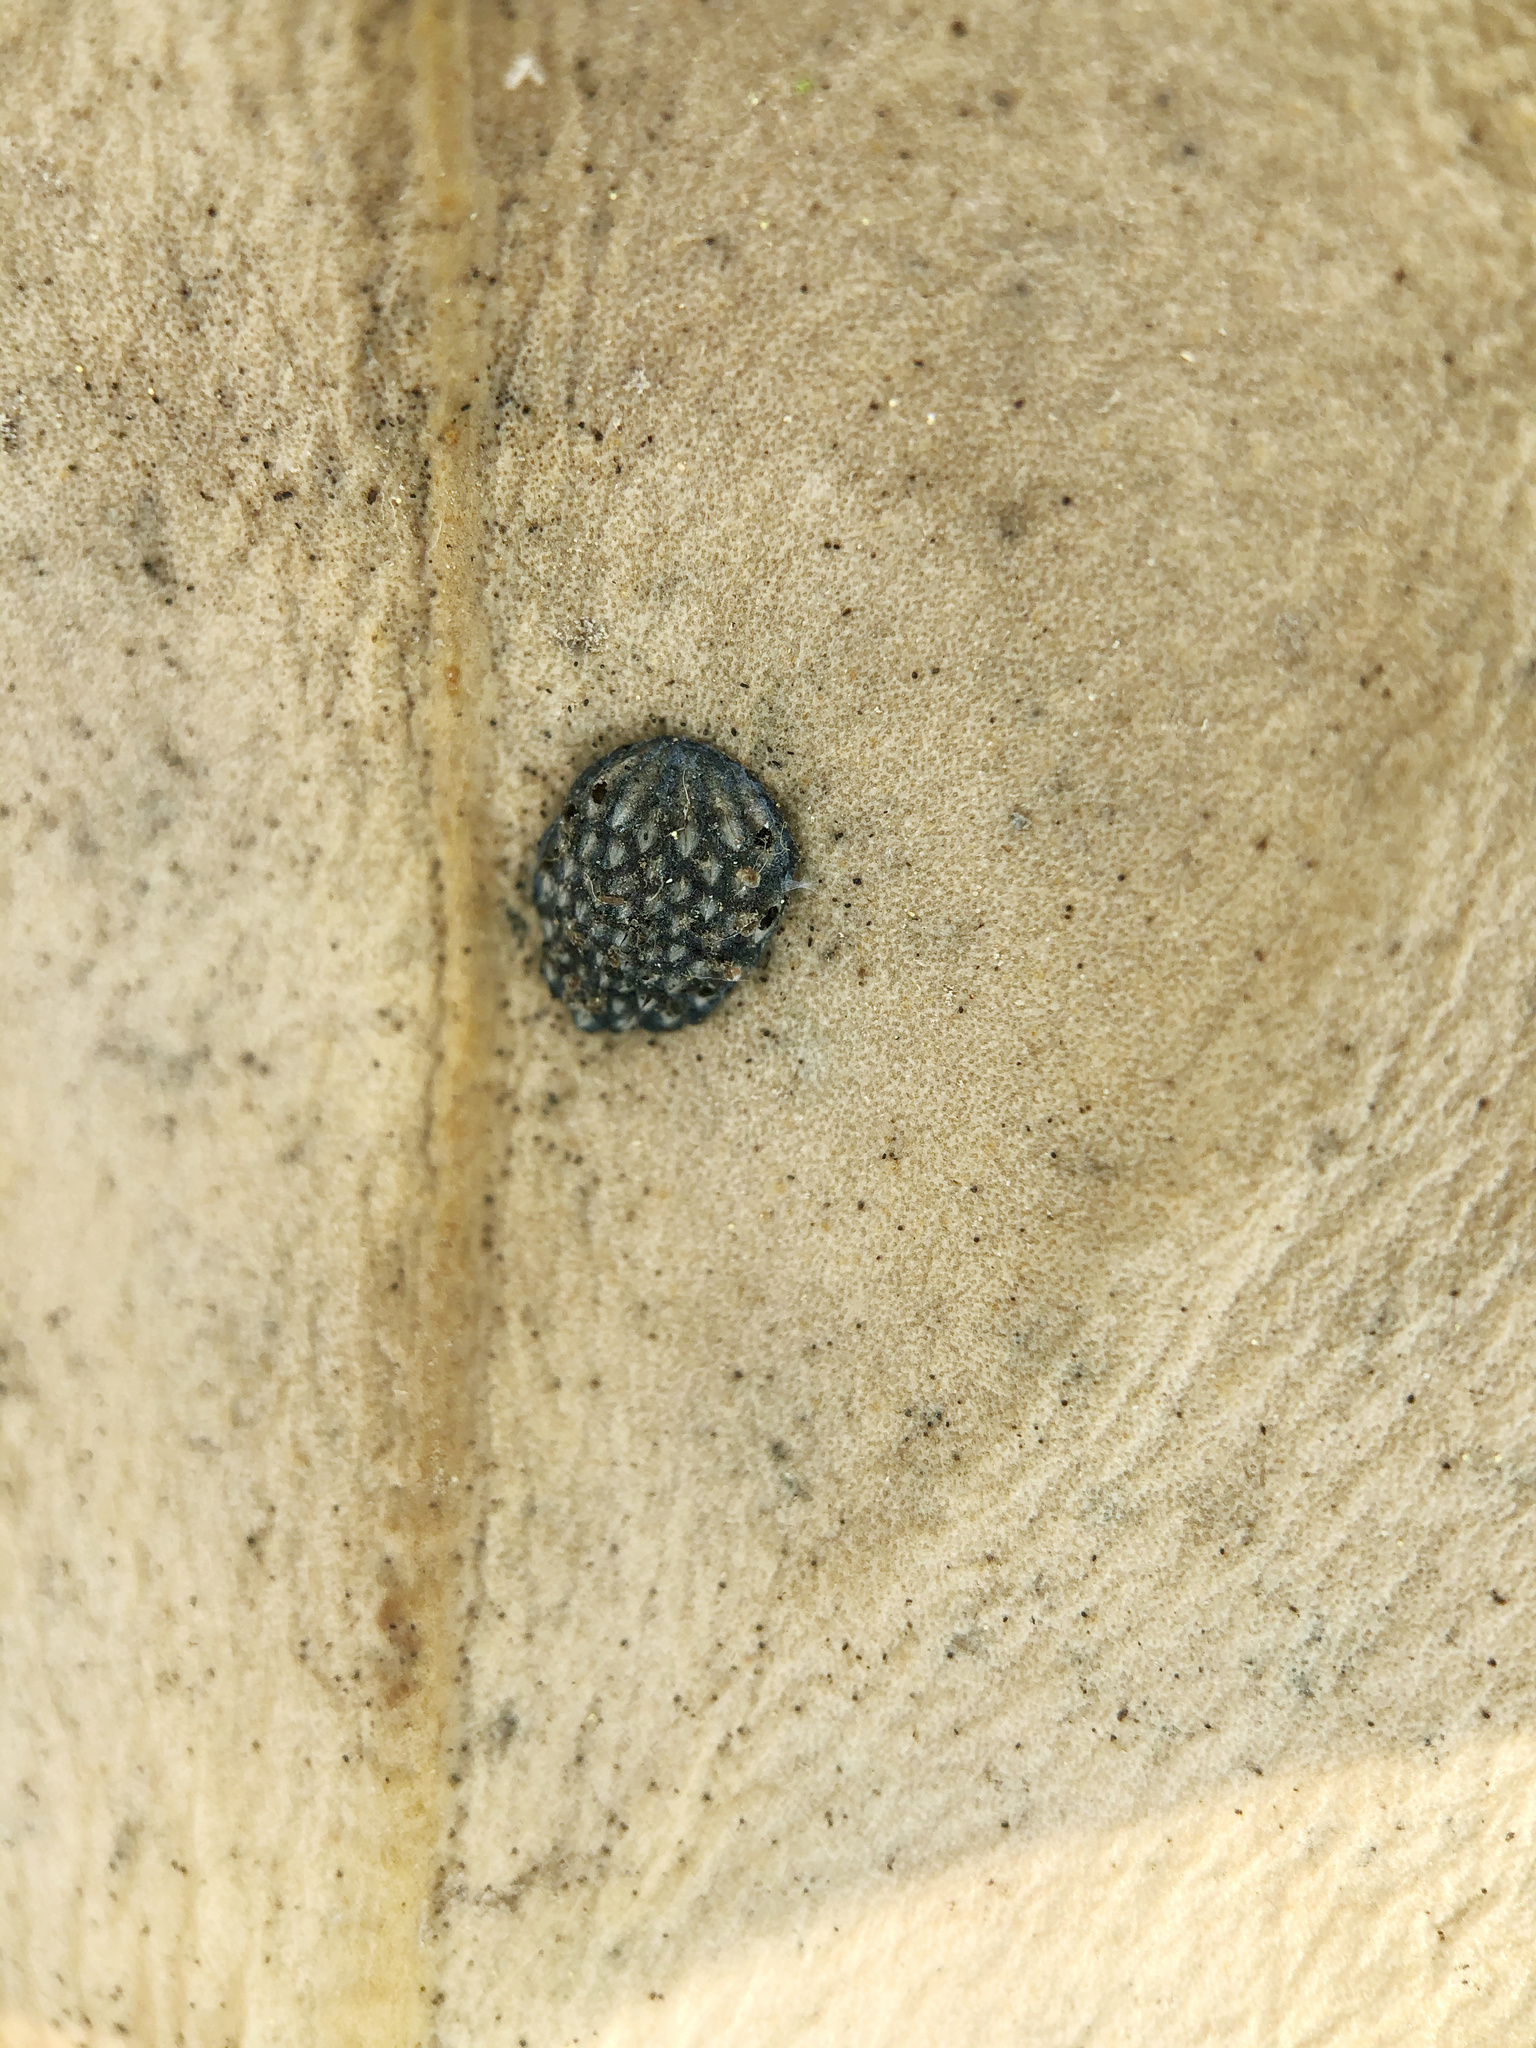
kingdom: Animalia
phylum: Arthropoda
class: Insecta
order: Hemiptera
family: Flatidae
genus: Siphanta
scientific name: Siphanta acuta
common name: Torpedo bug
